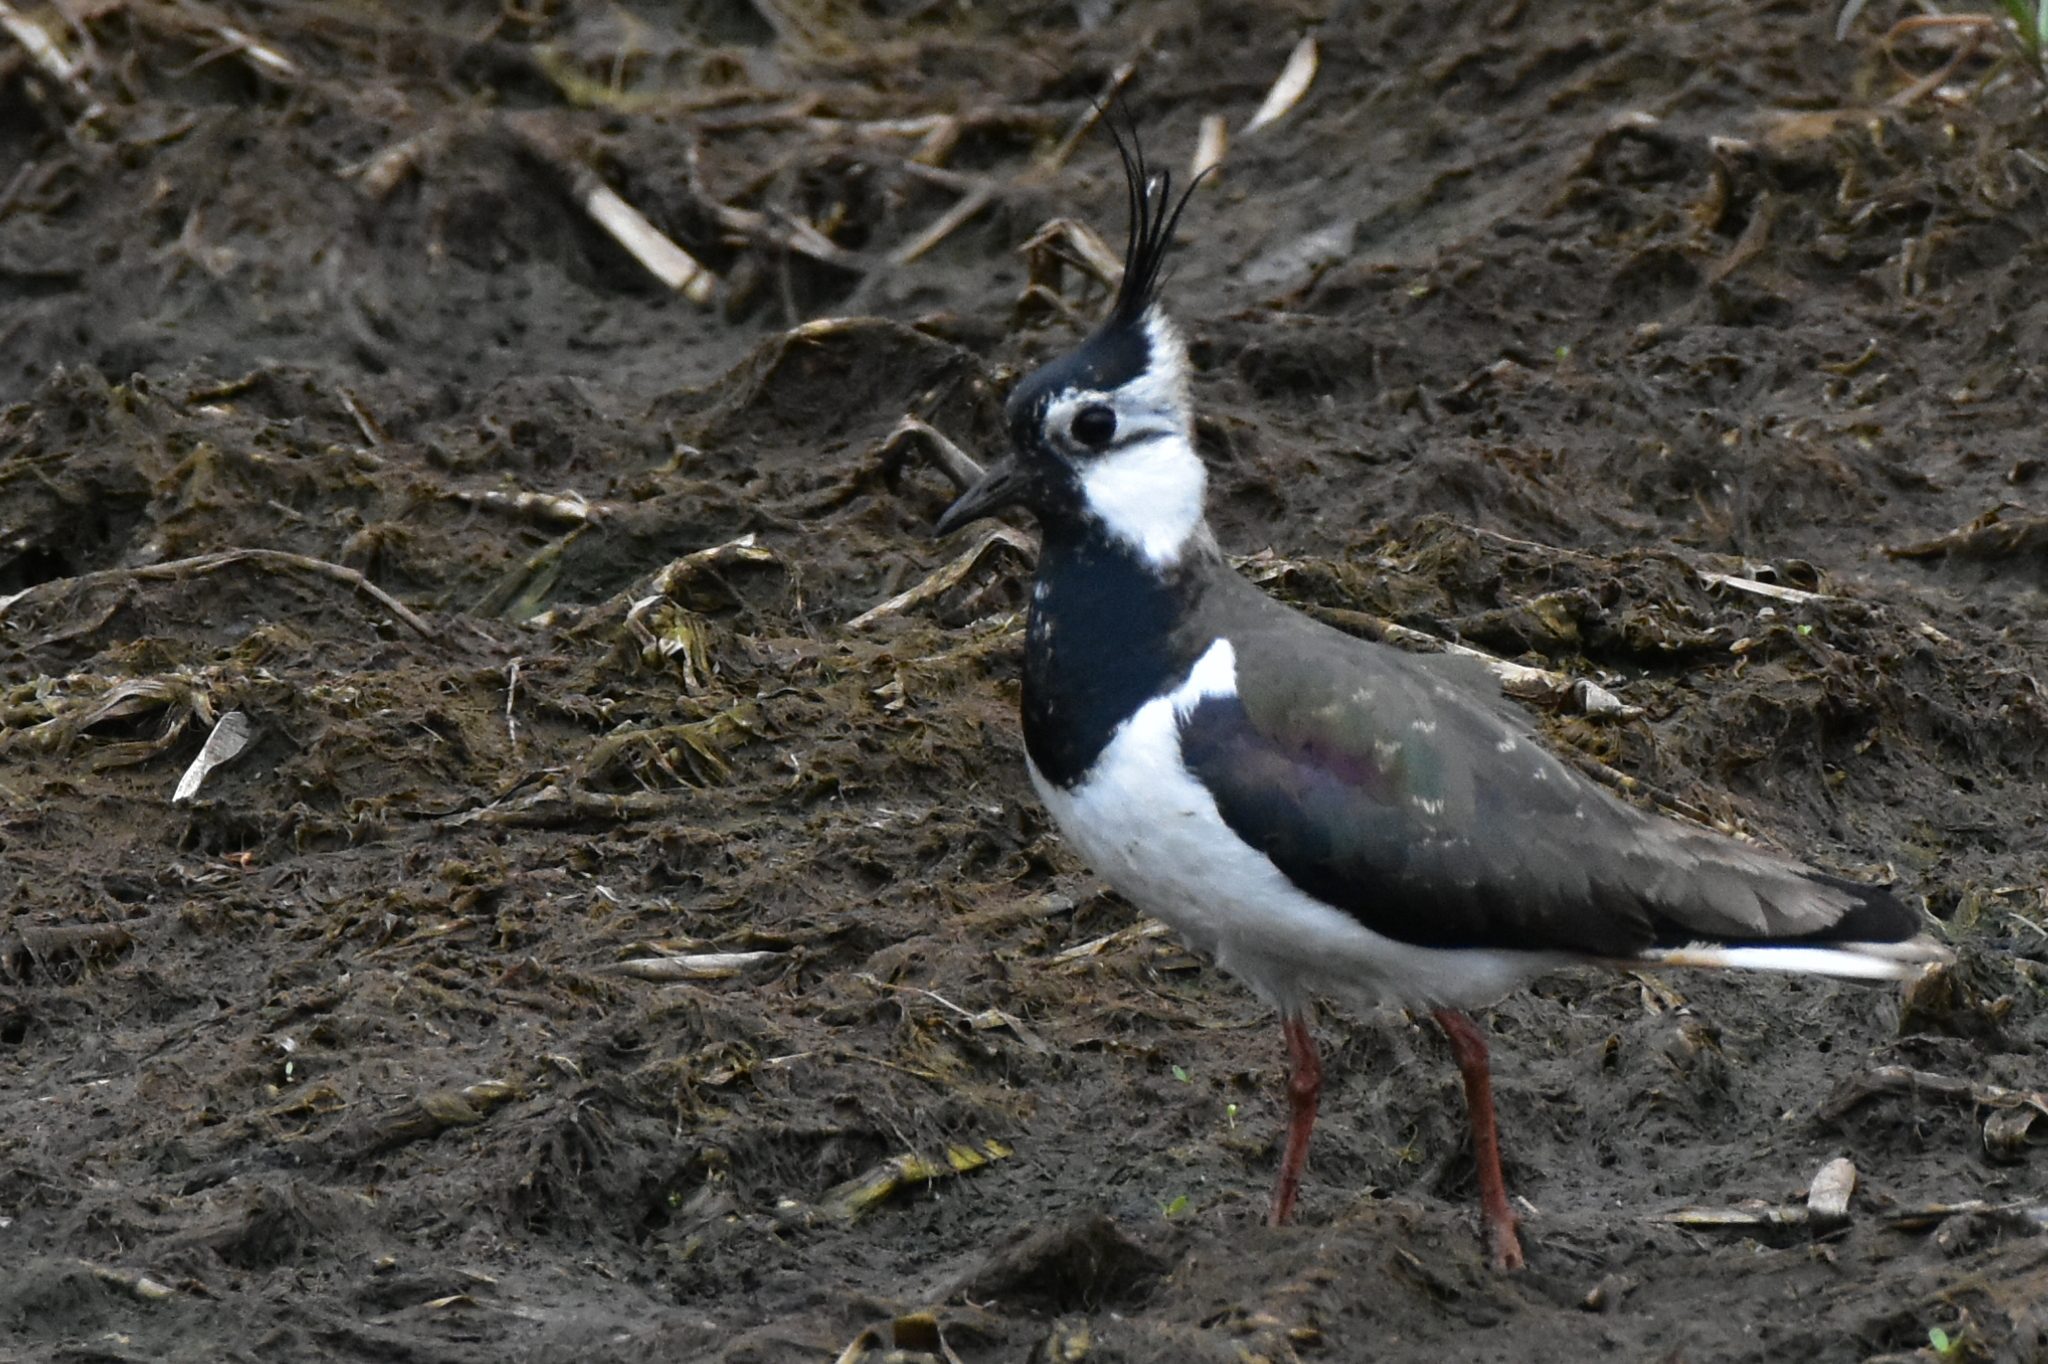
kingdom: Animalia
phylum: Chordata
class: Aves
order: Charadriiformes
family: Charadriidae
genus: Vanellus
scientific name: Vanellus vanellus
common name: Northern lapwing
